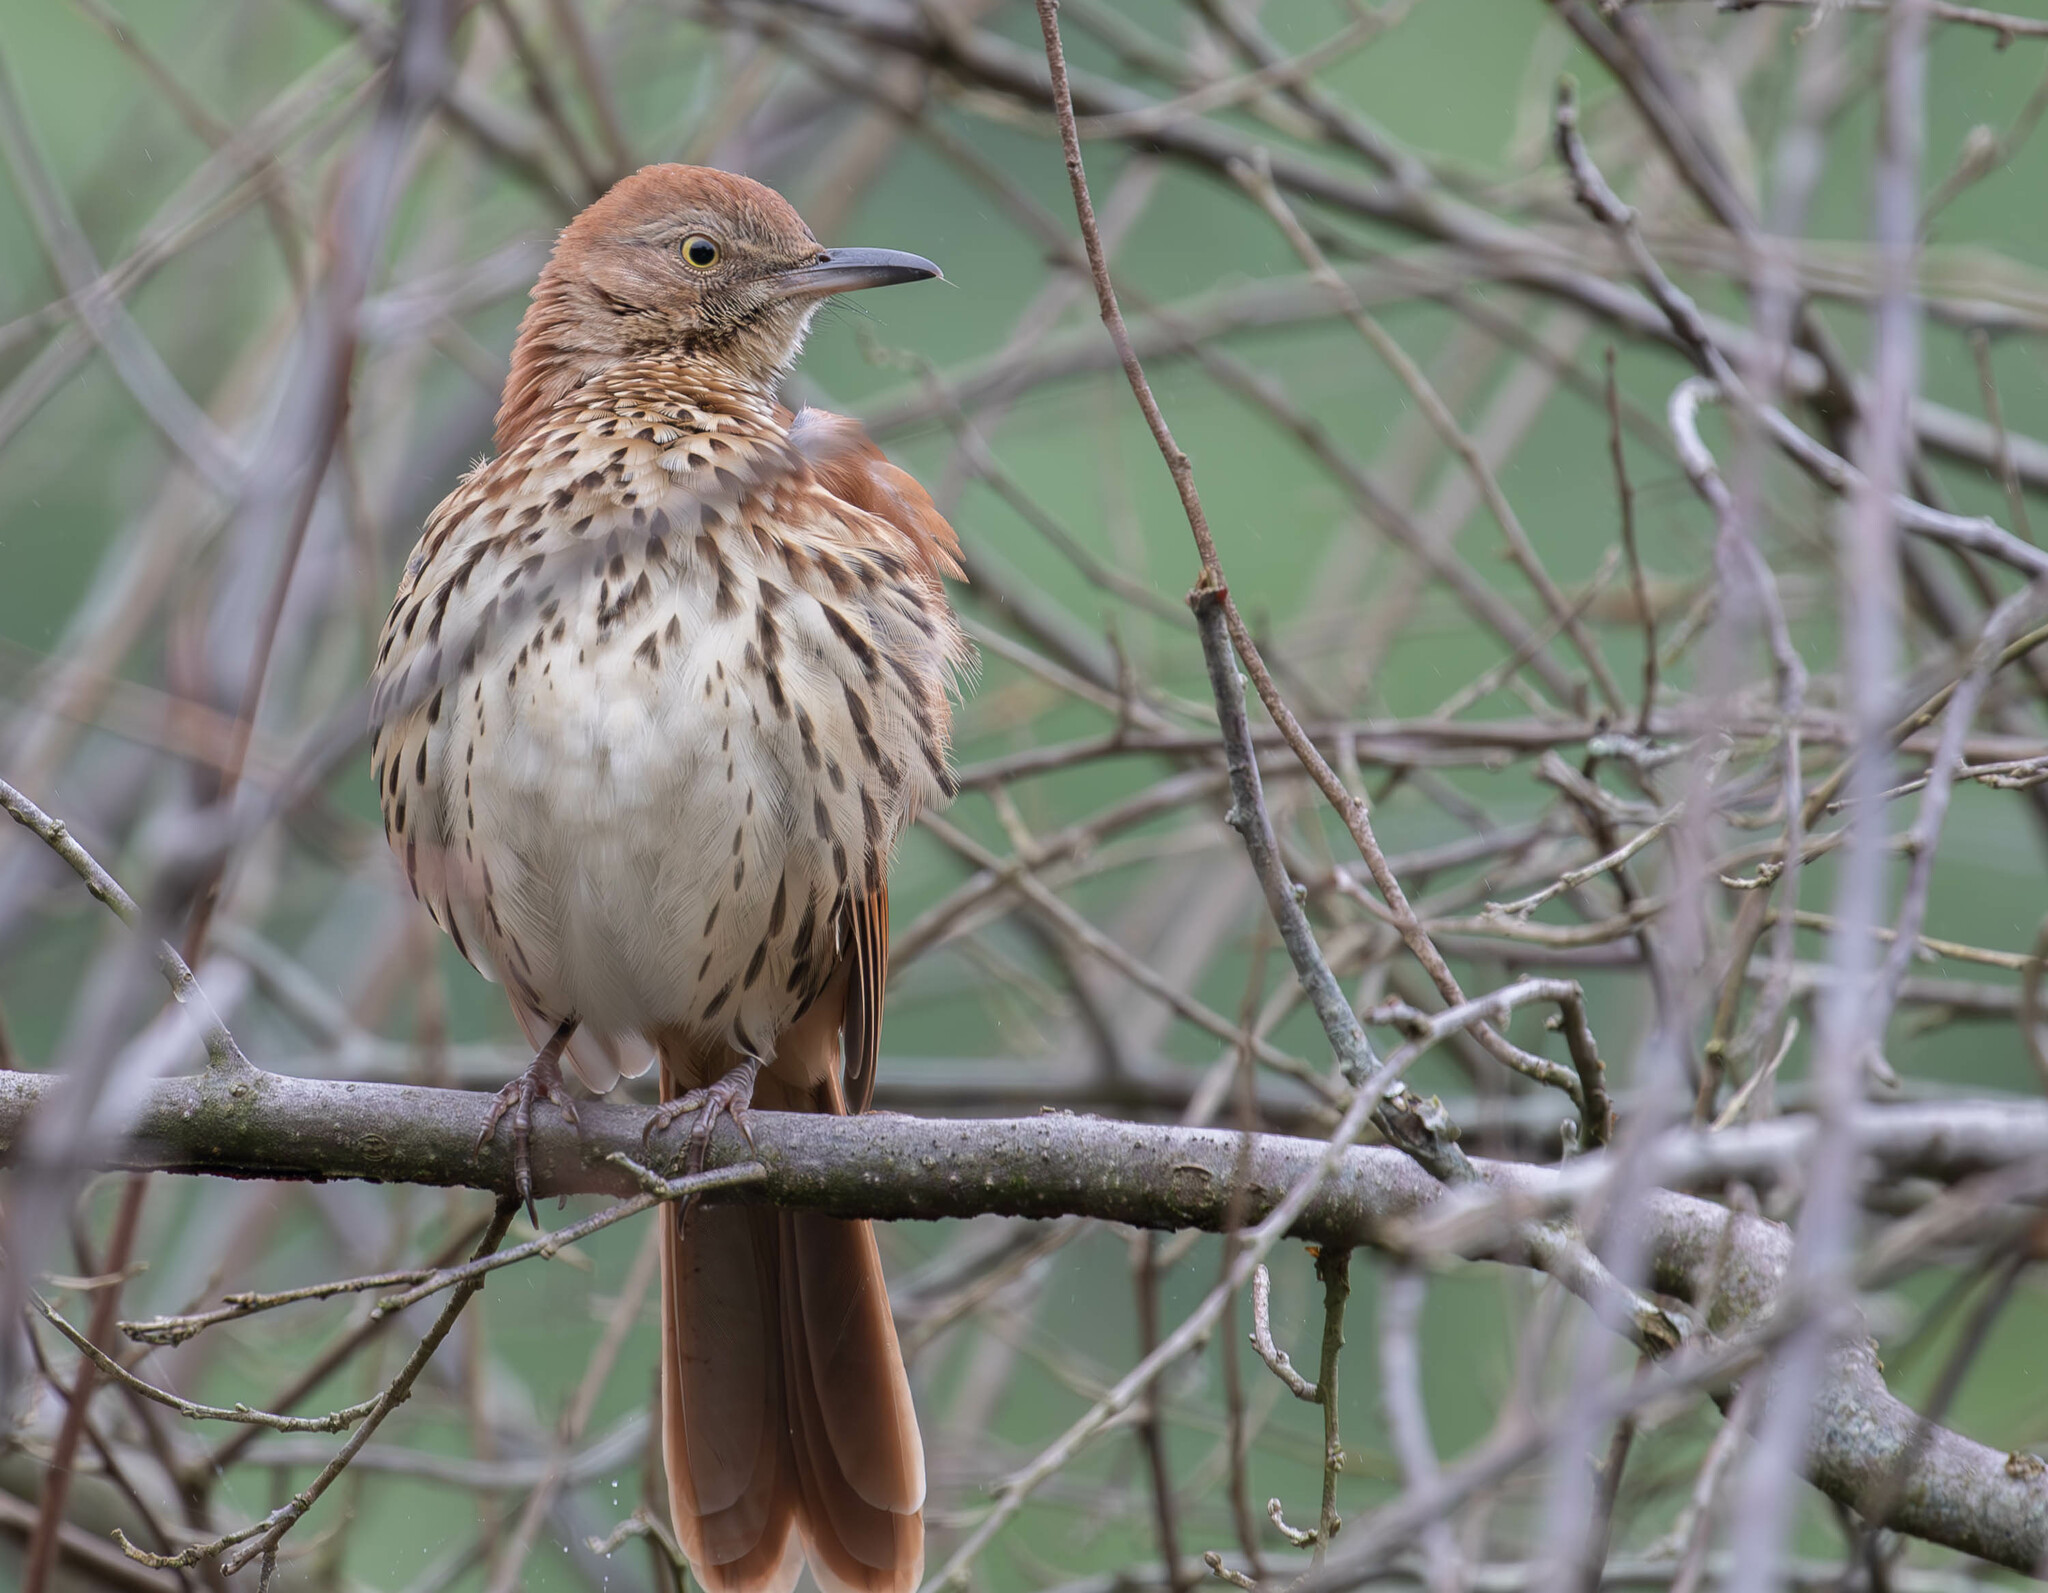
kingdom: Animalia
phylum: Chordata
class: Aves
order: Passeriformes
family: Mimidae
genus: Toxostoma
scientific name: Toxostoma rufum
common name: Brown thrasher
